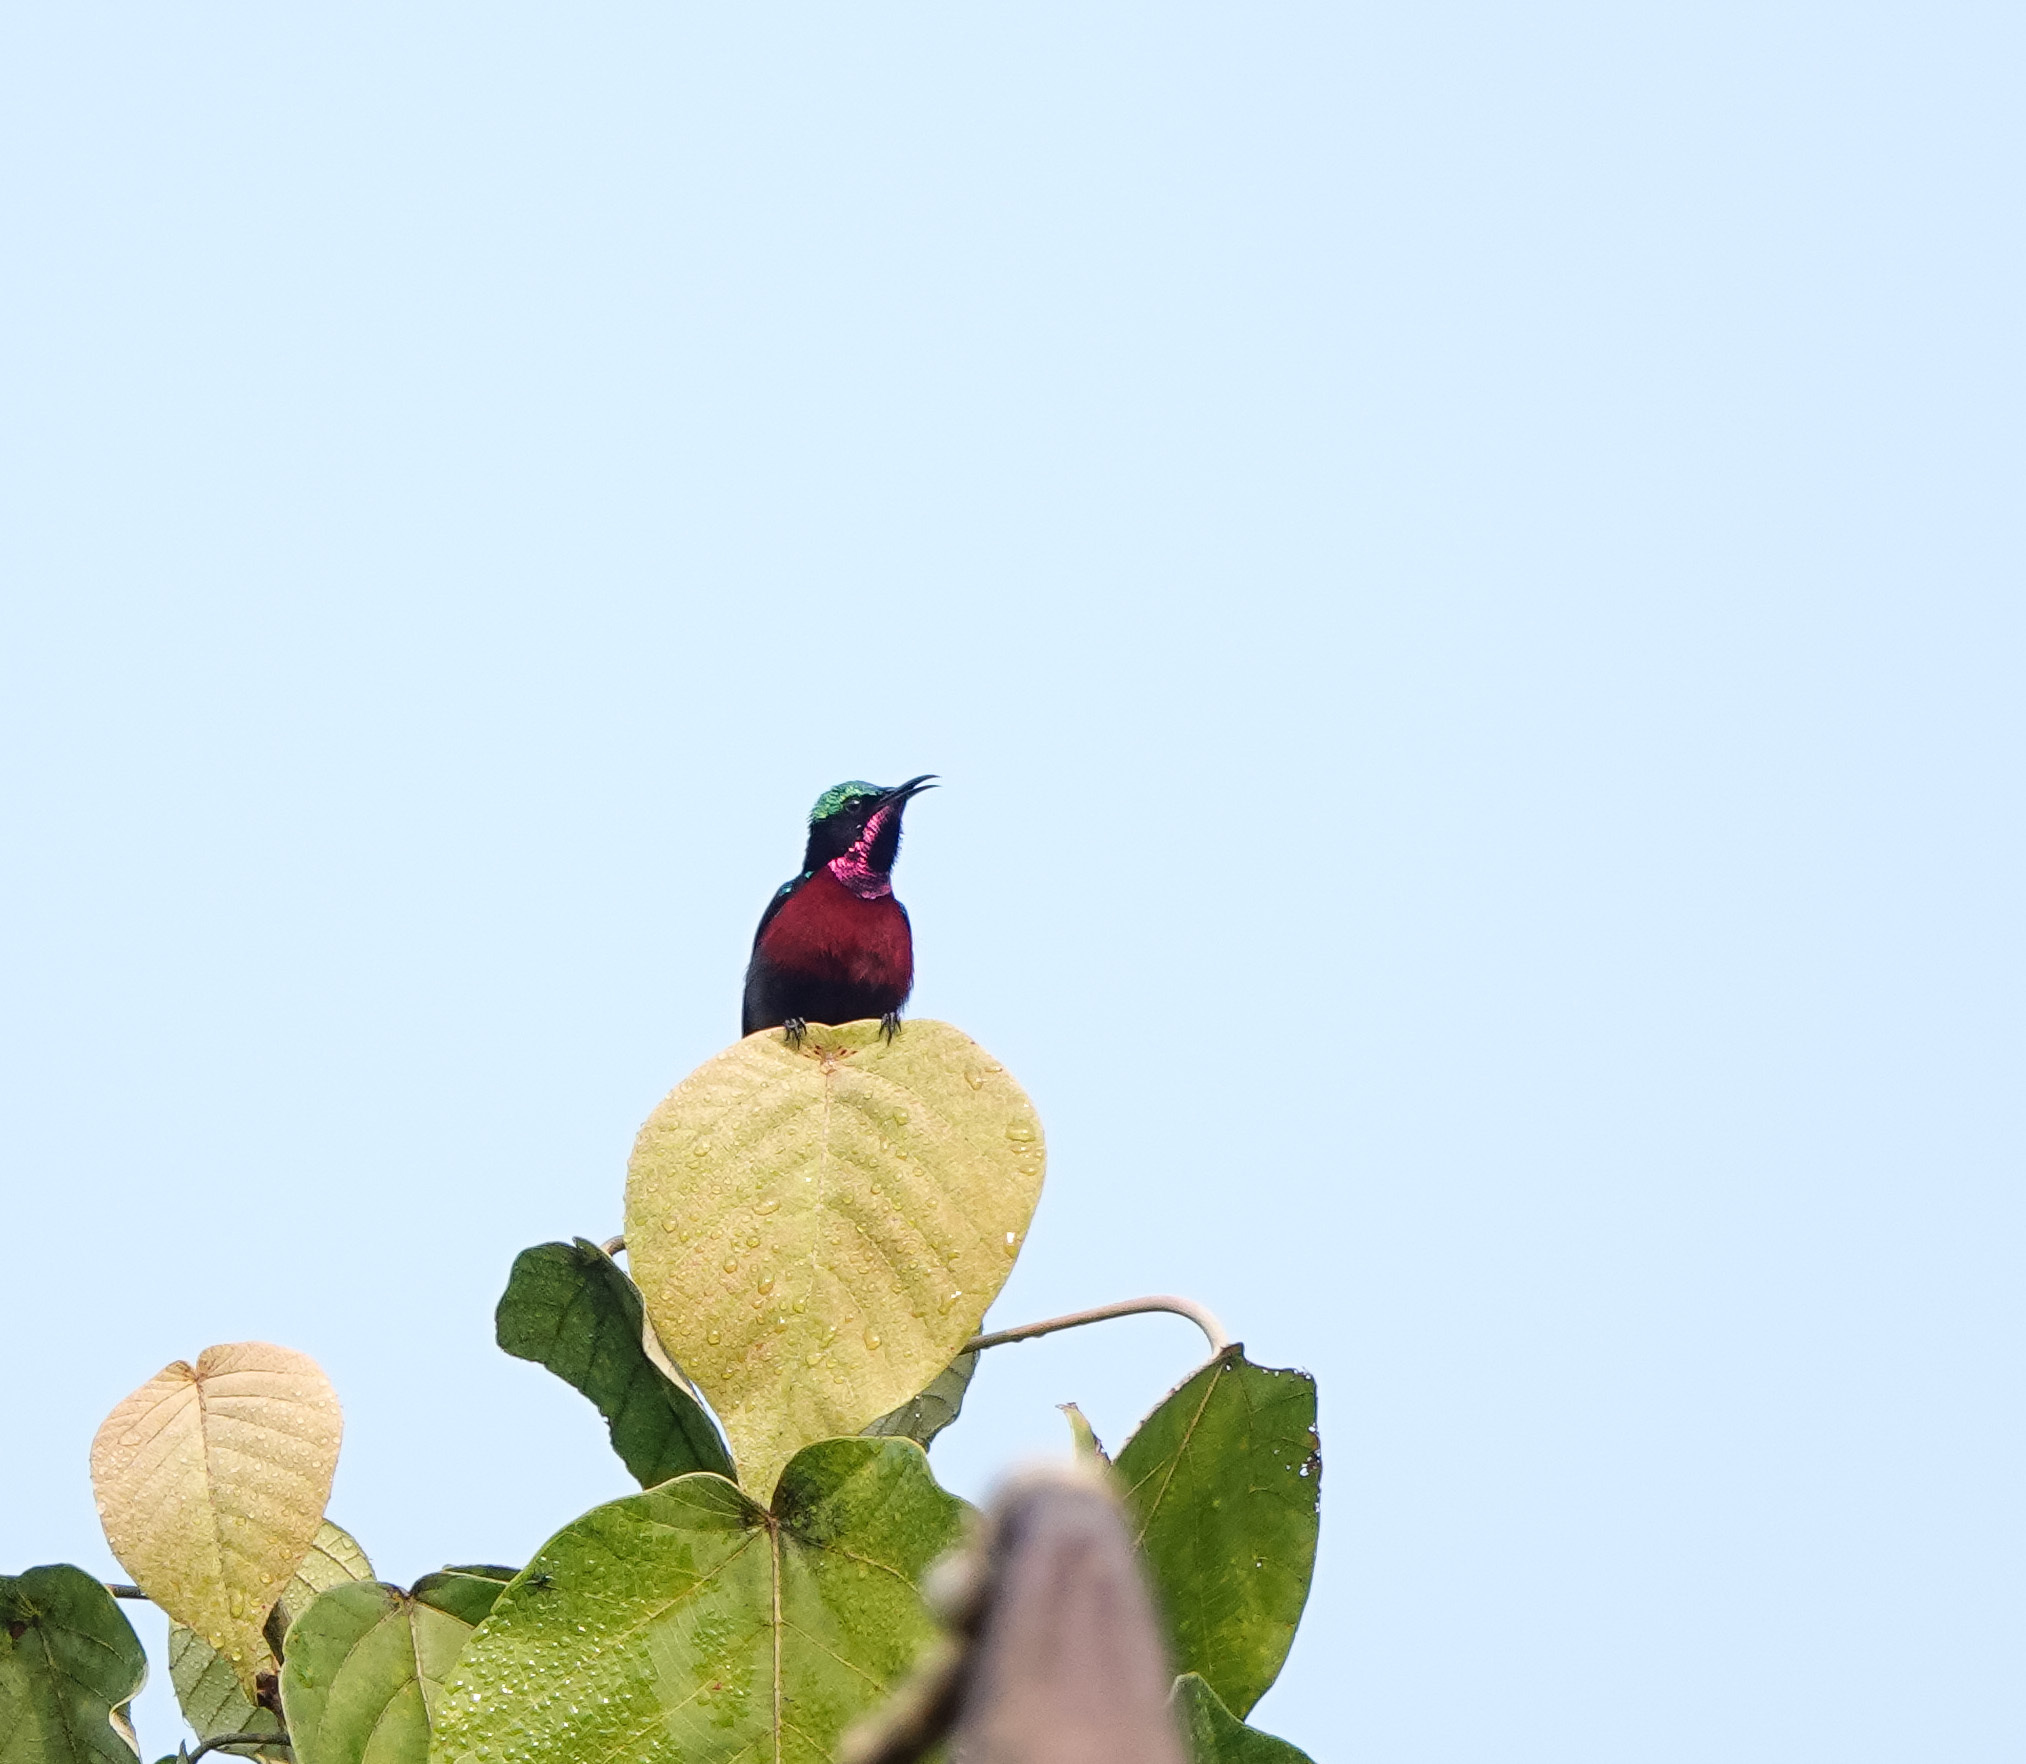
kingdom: Animalia
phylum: Chordata
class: Aves
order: Passeriformes
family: Nectariniidae
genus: Leptocoma
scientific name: Leptocoma brasiliana
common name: Van hasselt's sunbird
